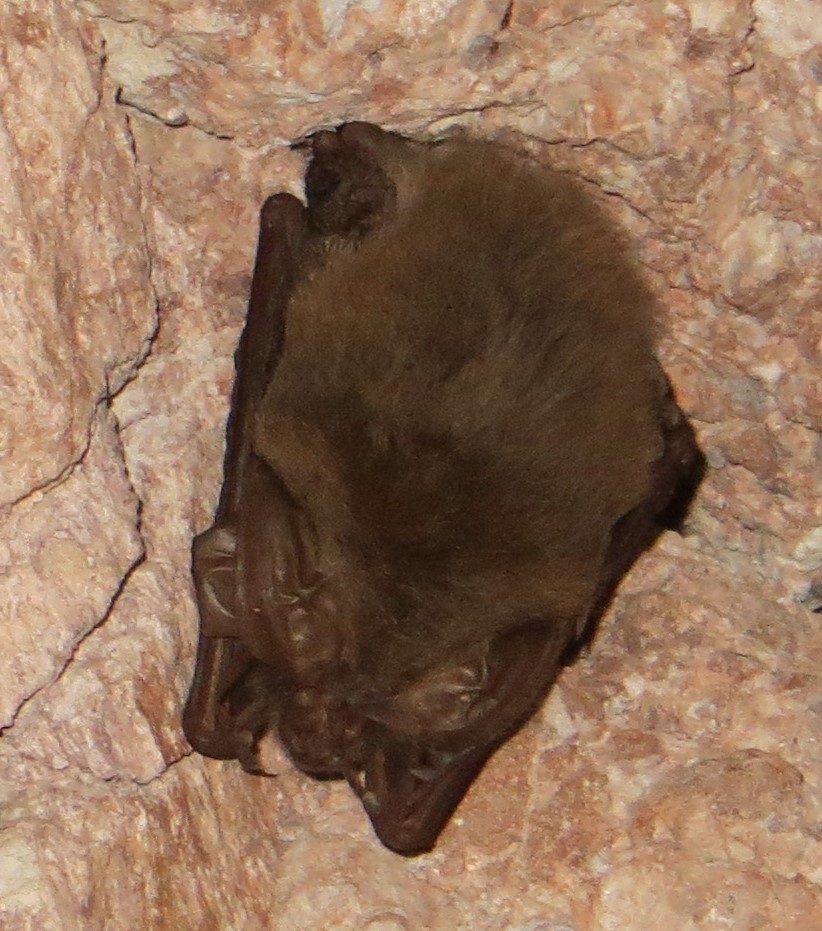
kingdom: Animalia
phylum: Chordata
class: Mammalia
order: Chiroptera
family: Vespertilionidae
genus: Corynorhinus
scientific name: Corynorhinus townsendii
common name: Townsend's big-eared bat
